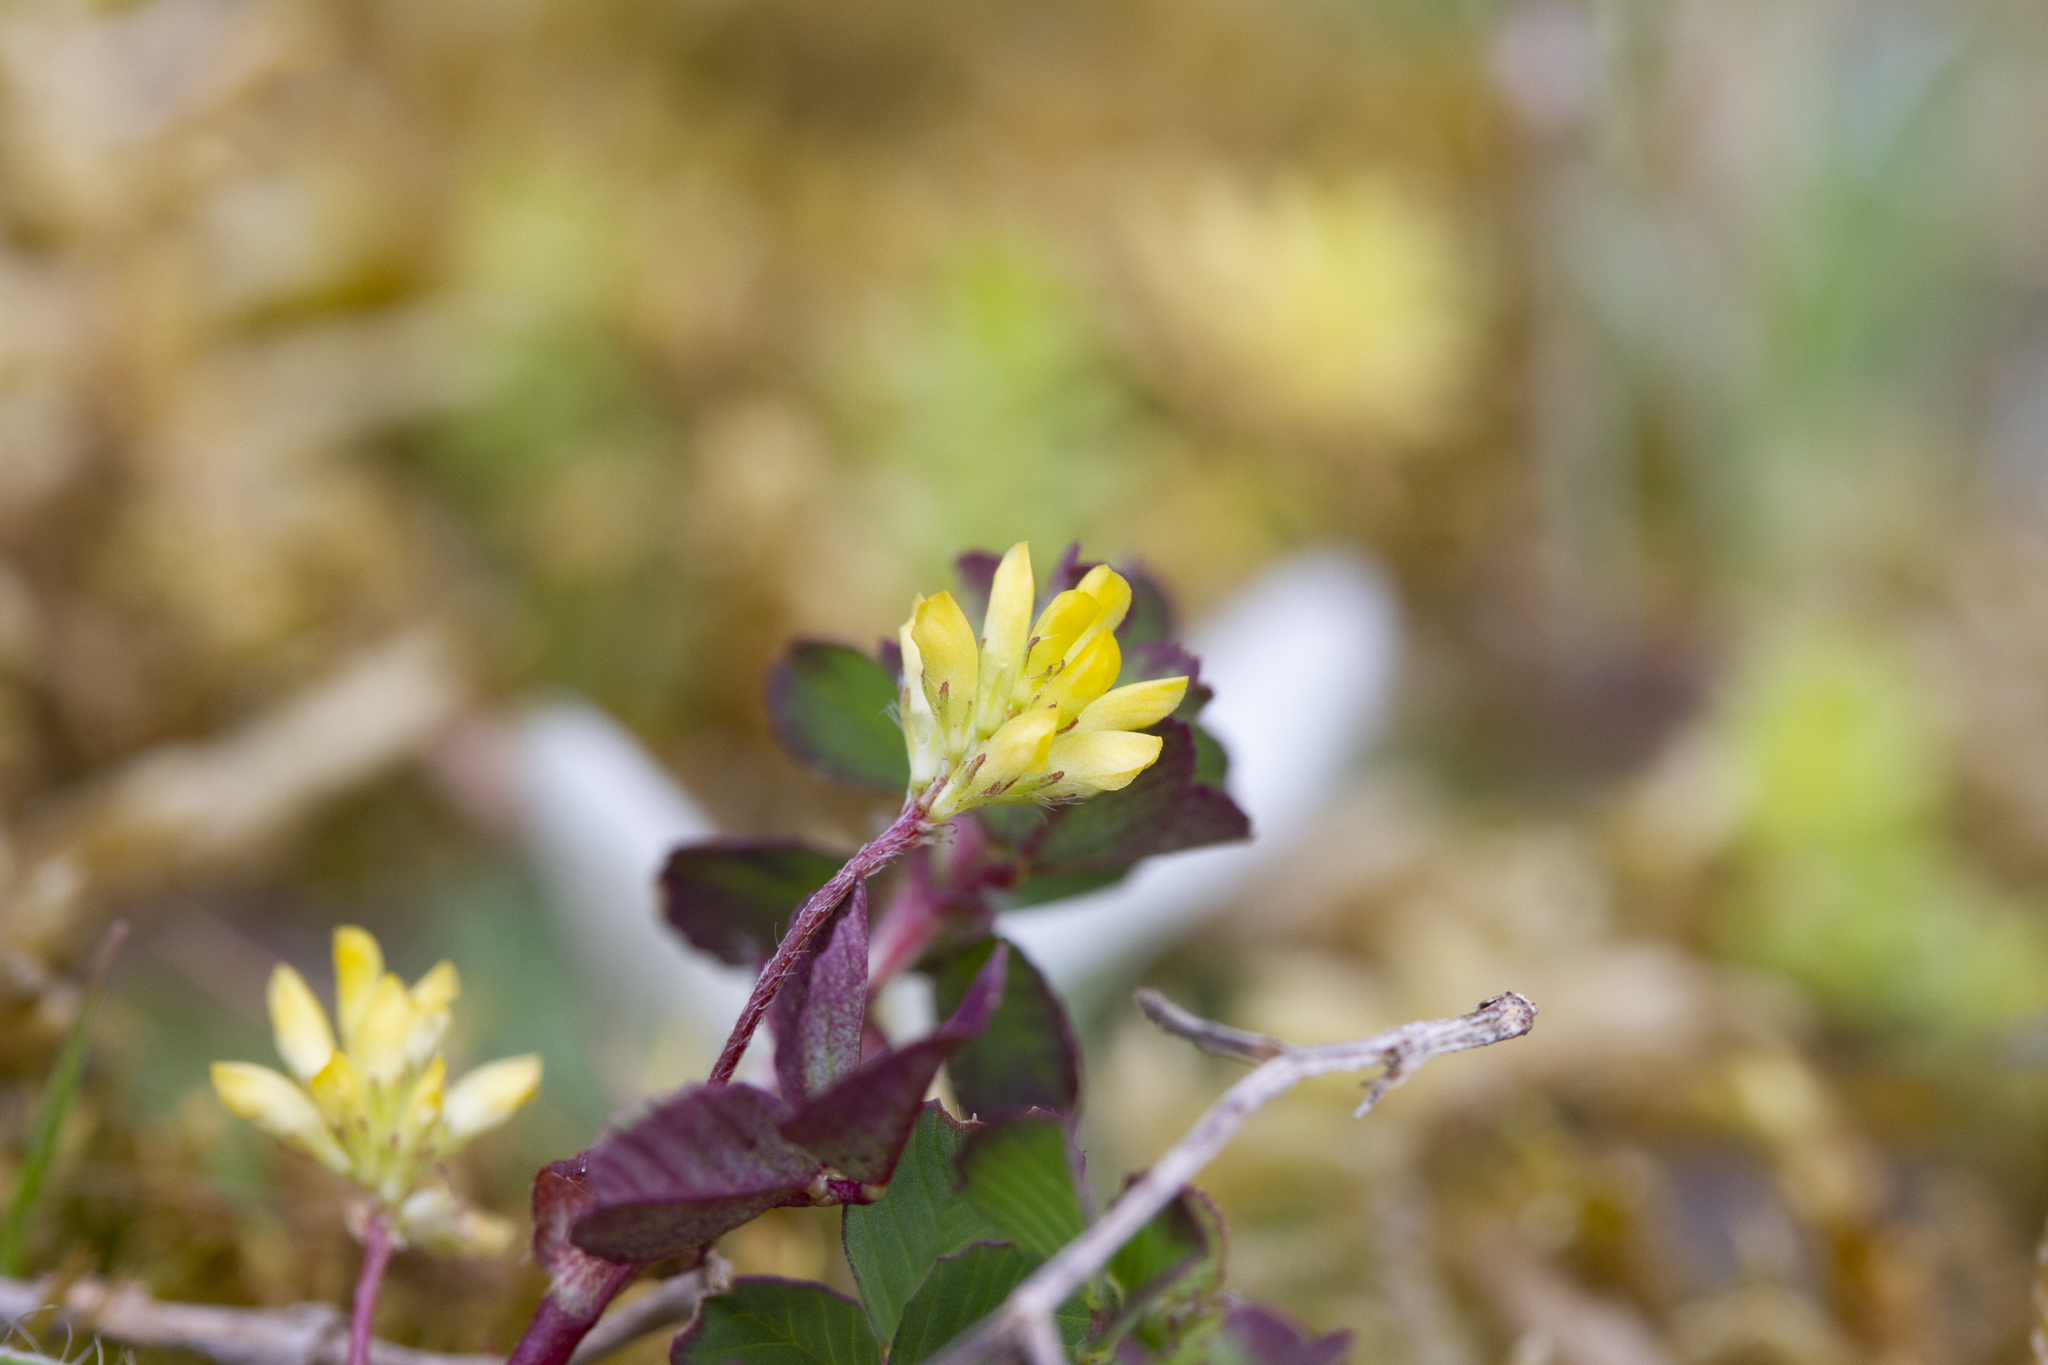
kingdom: Plantae
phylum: Tracheophyta
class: Magnoliopsida
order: Fabales
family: Fabaceae
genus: Trifolium
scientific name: Trifolium dubium
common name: Suckling clover
